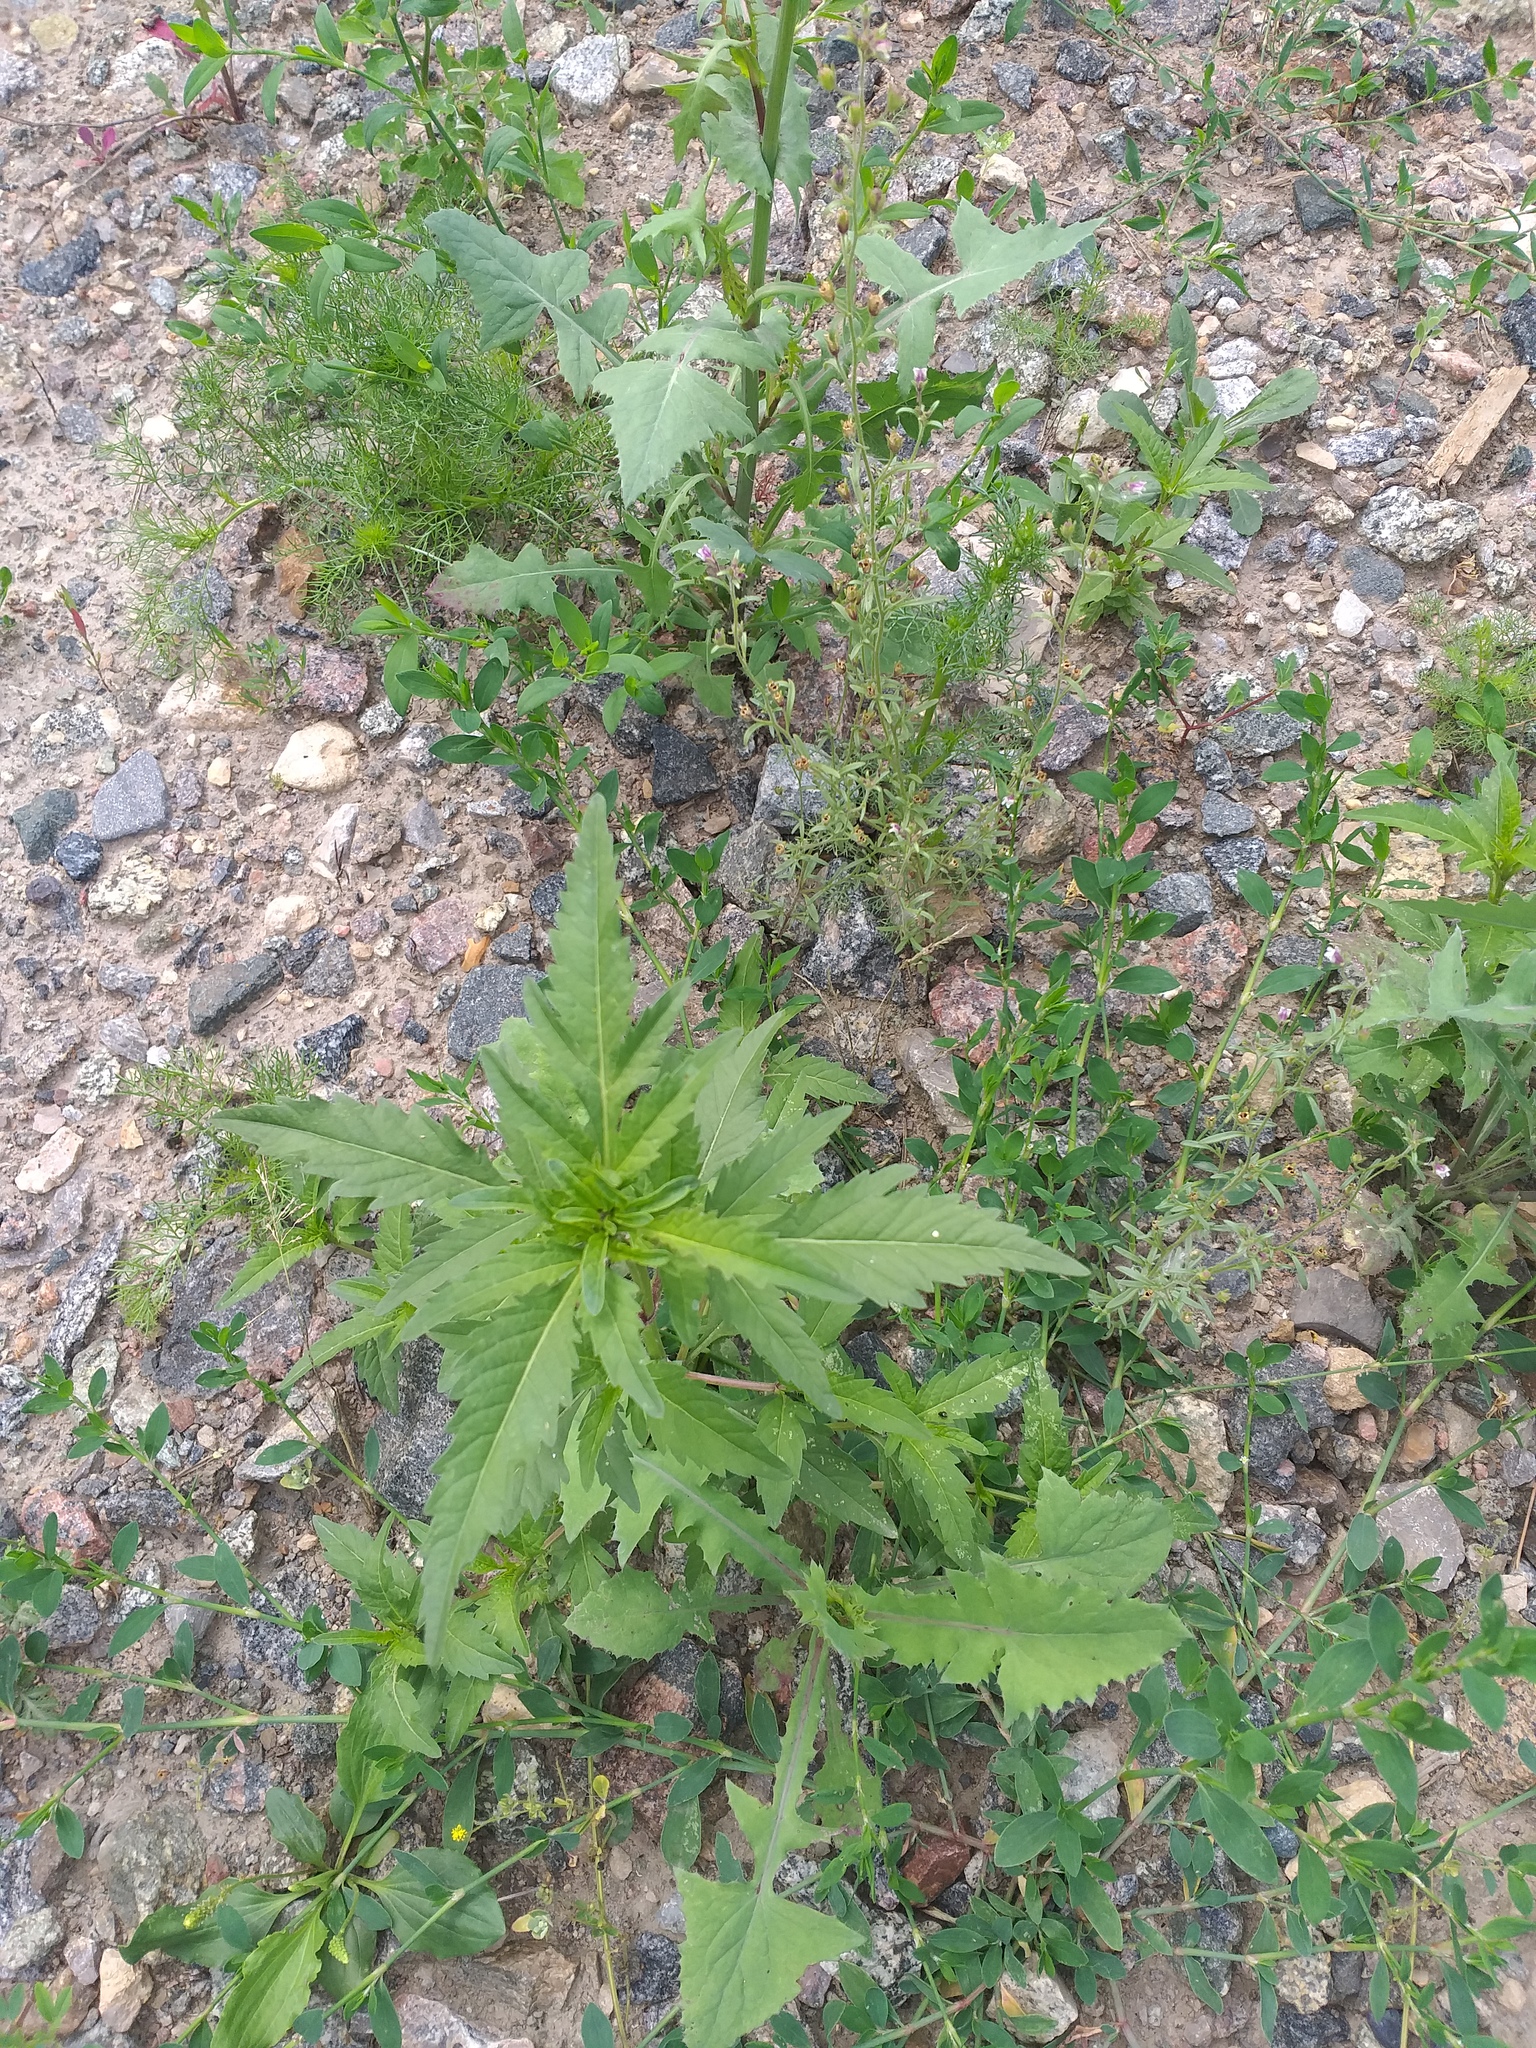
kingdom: Plantae
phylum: Tracheophyta
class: Magnoliopsida
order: Asterales
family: Asteraceae
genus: Bidens
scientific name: Bidens tripartita
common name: Trifid bur-marigold
